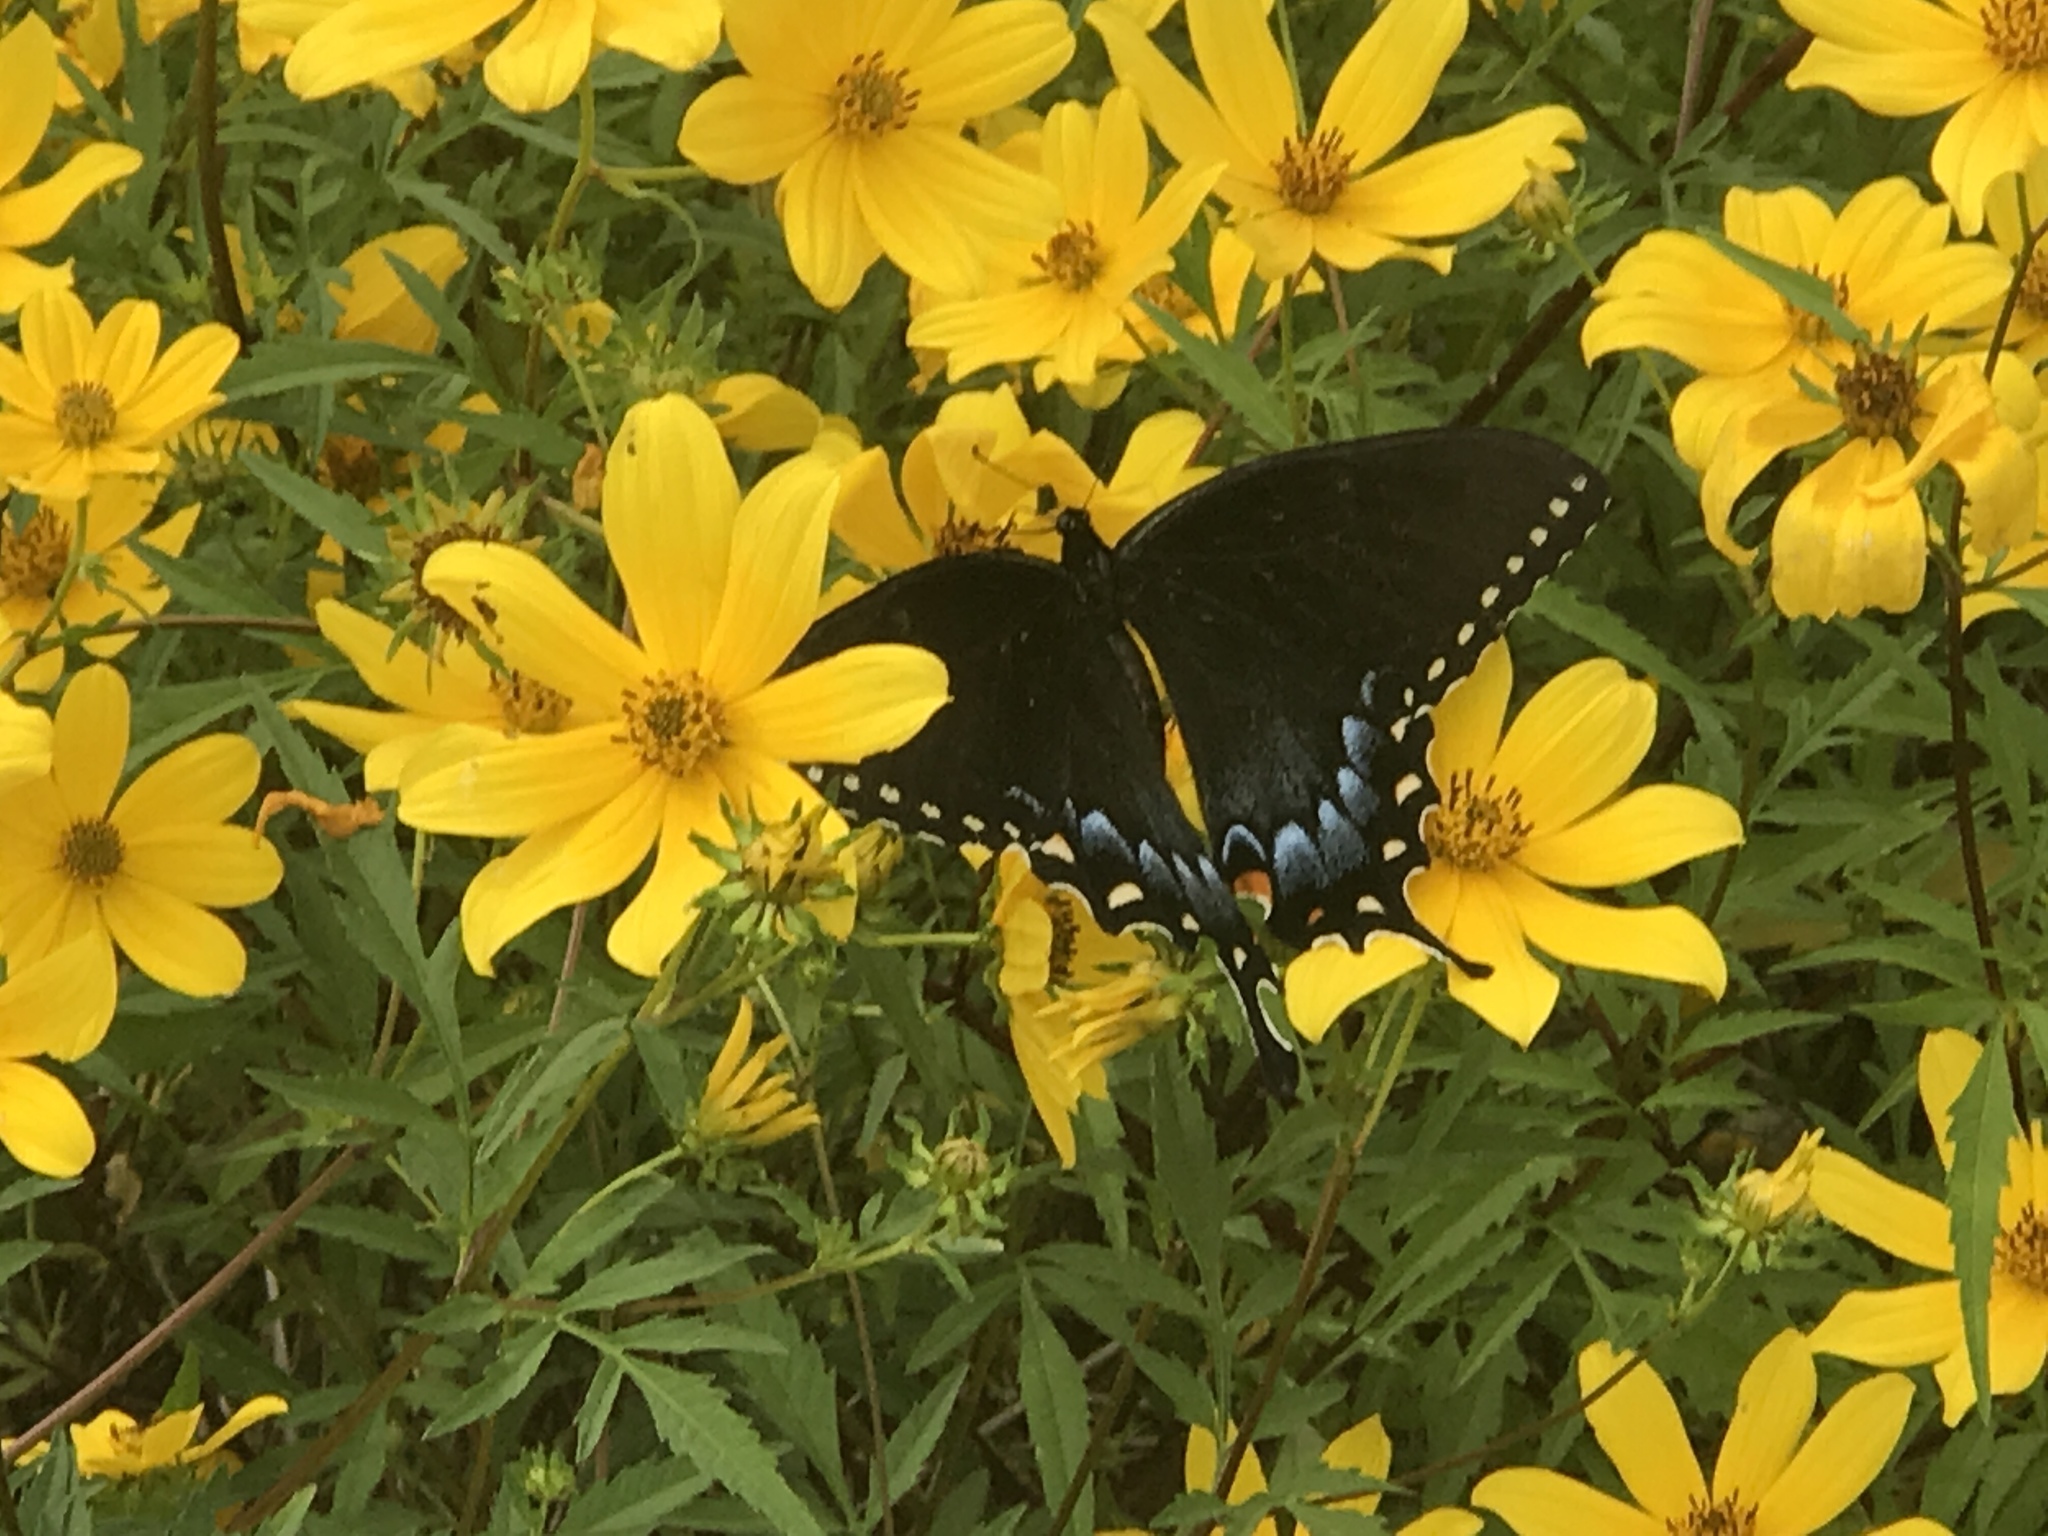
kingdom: Animalia
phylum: Arthropoda
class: Insecta
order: Lepidoptera
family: Papilionidae
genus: Papilio
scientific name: Papilio glaucus
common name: Tiger swallowtail
